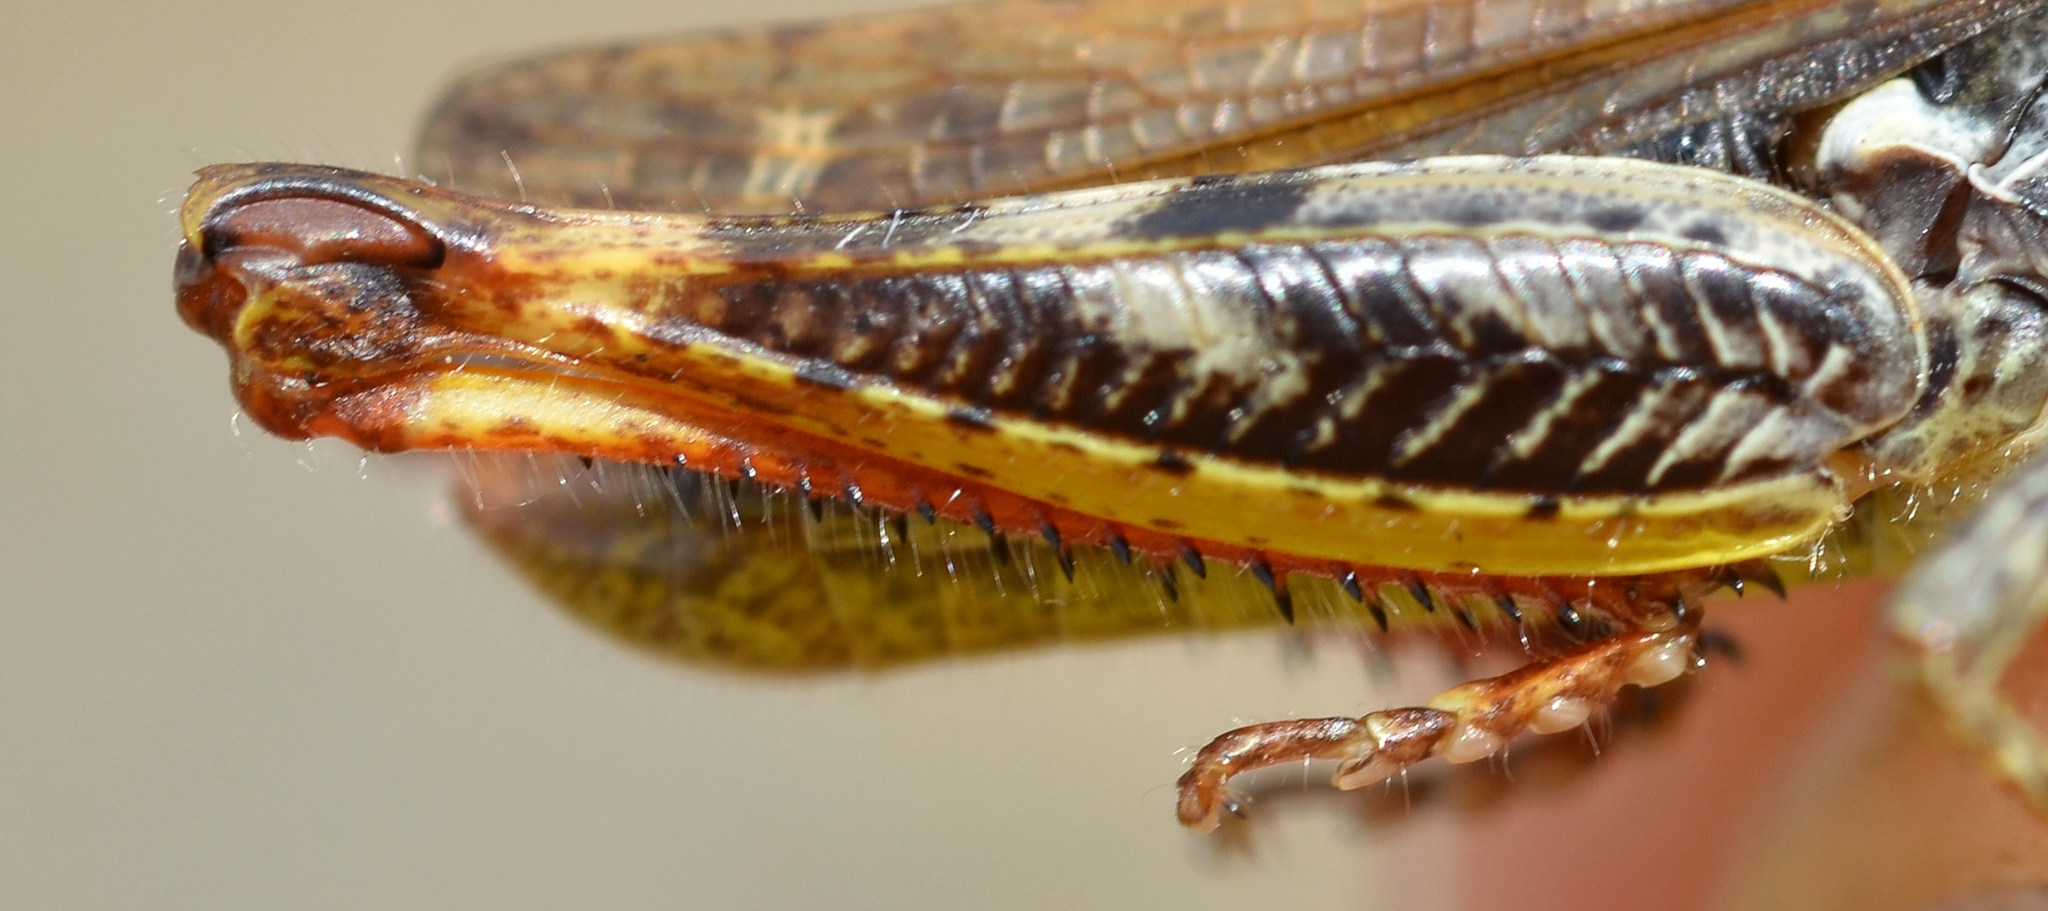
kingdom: Animalia
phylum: Arthropoda
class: Insecta
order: Orthoptera
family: Acrididae
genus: Chorthippus
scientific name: Chorthippus saulcyi
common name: French grasshopper
